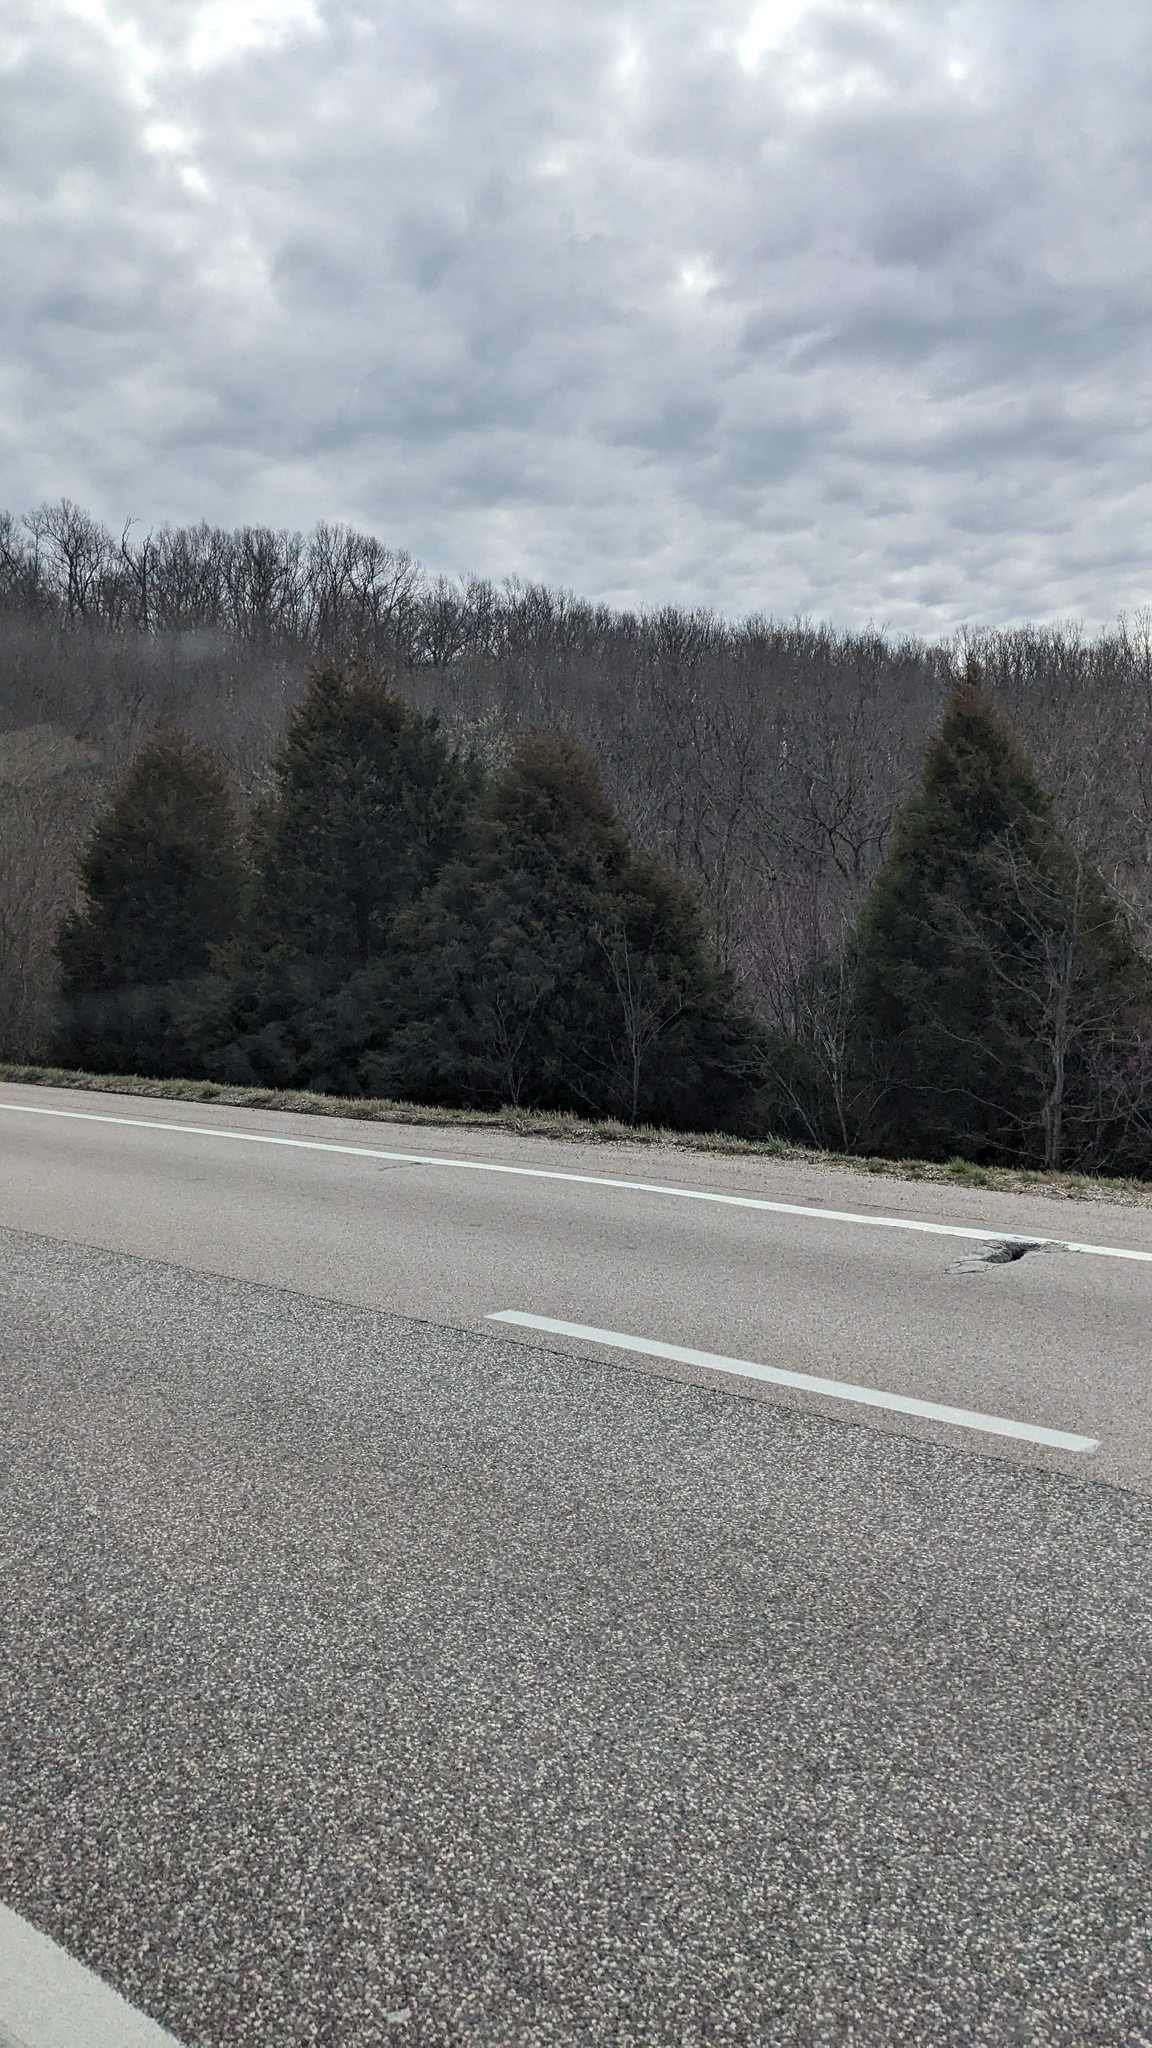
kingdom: Plantae
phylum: Tracheophyta
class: Pinopsida
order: Pinales
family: Cupressaceae
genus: Juniperus
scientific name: Juniperus virginiana
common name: Red juniper
